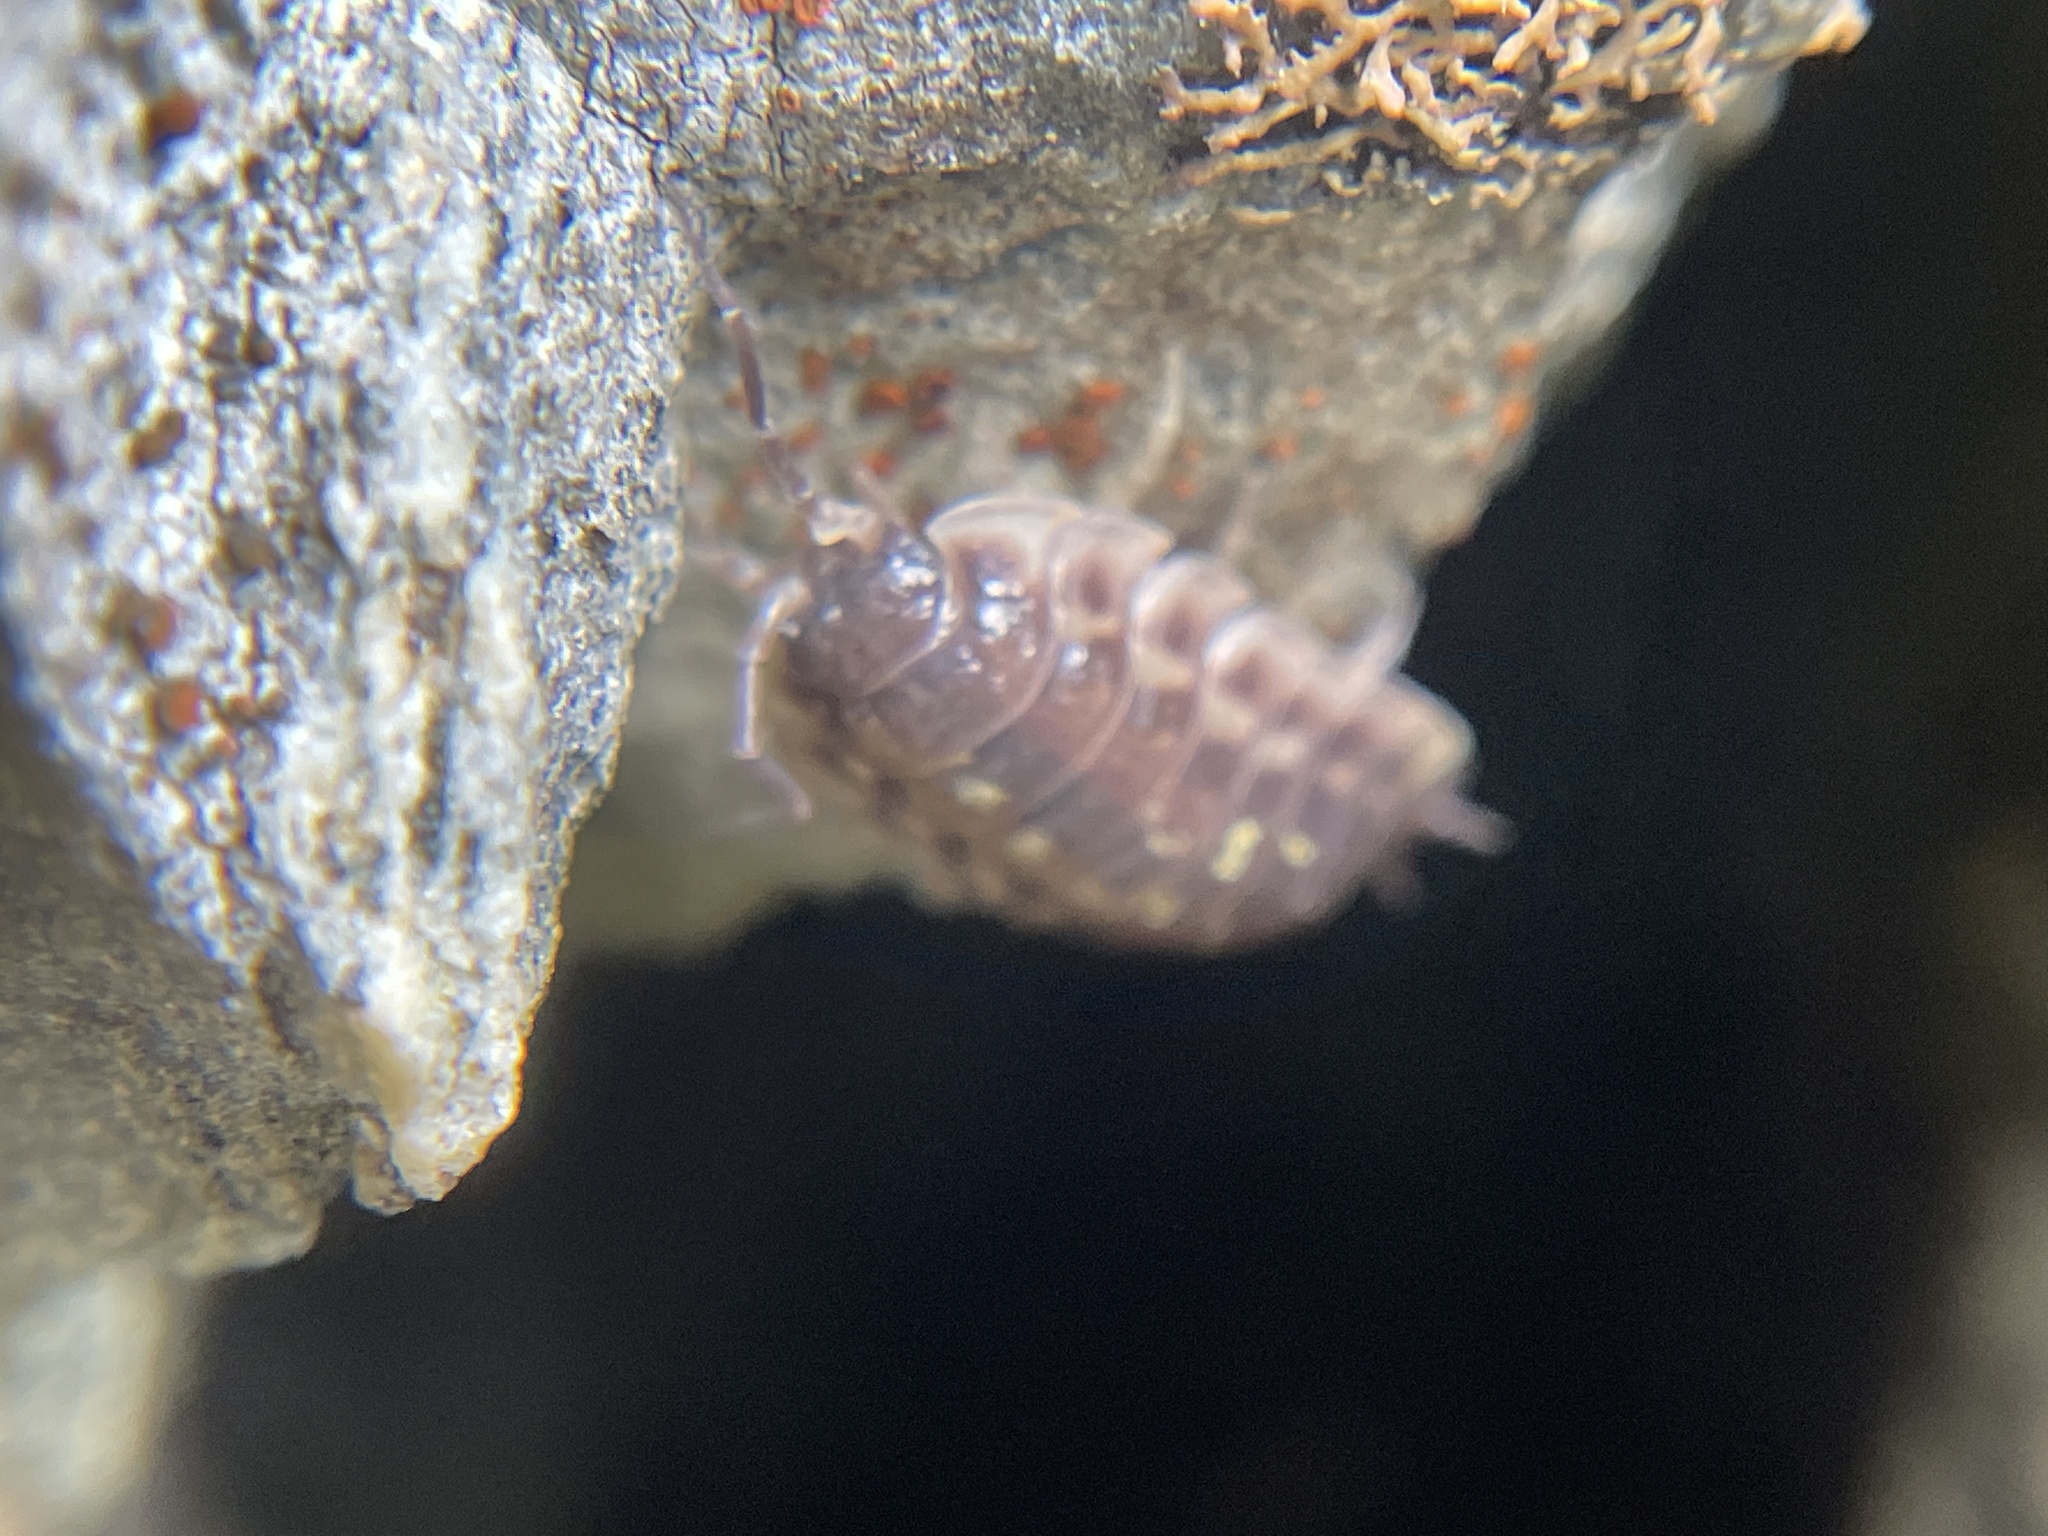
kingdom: Animalia
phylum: Arthropoda
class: Malacostraca
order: Isopoda
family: Oniscidae
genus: Oniscus
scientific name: Oniscus asellus
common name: Common shiny woodlouse
